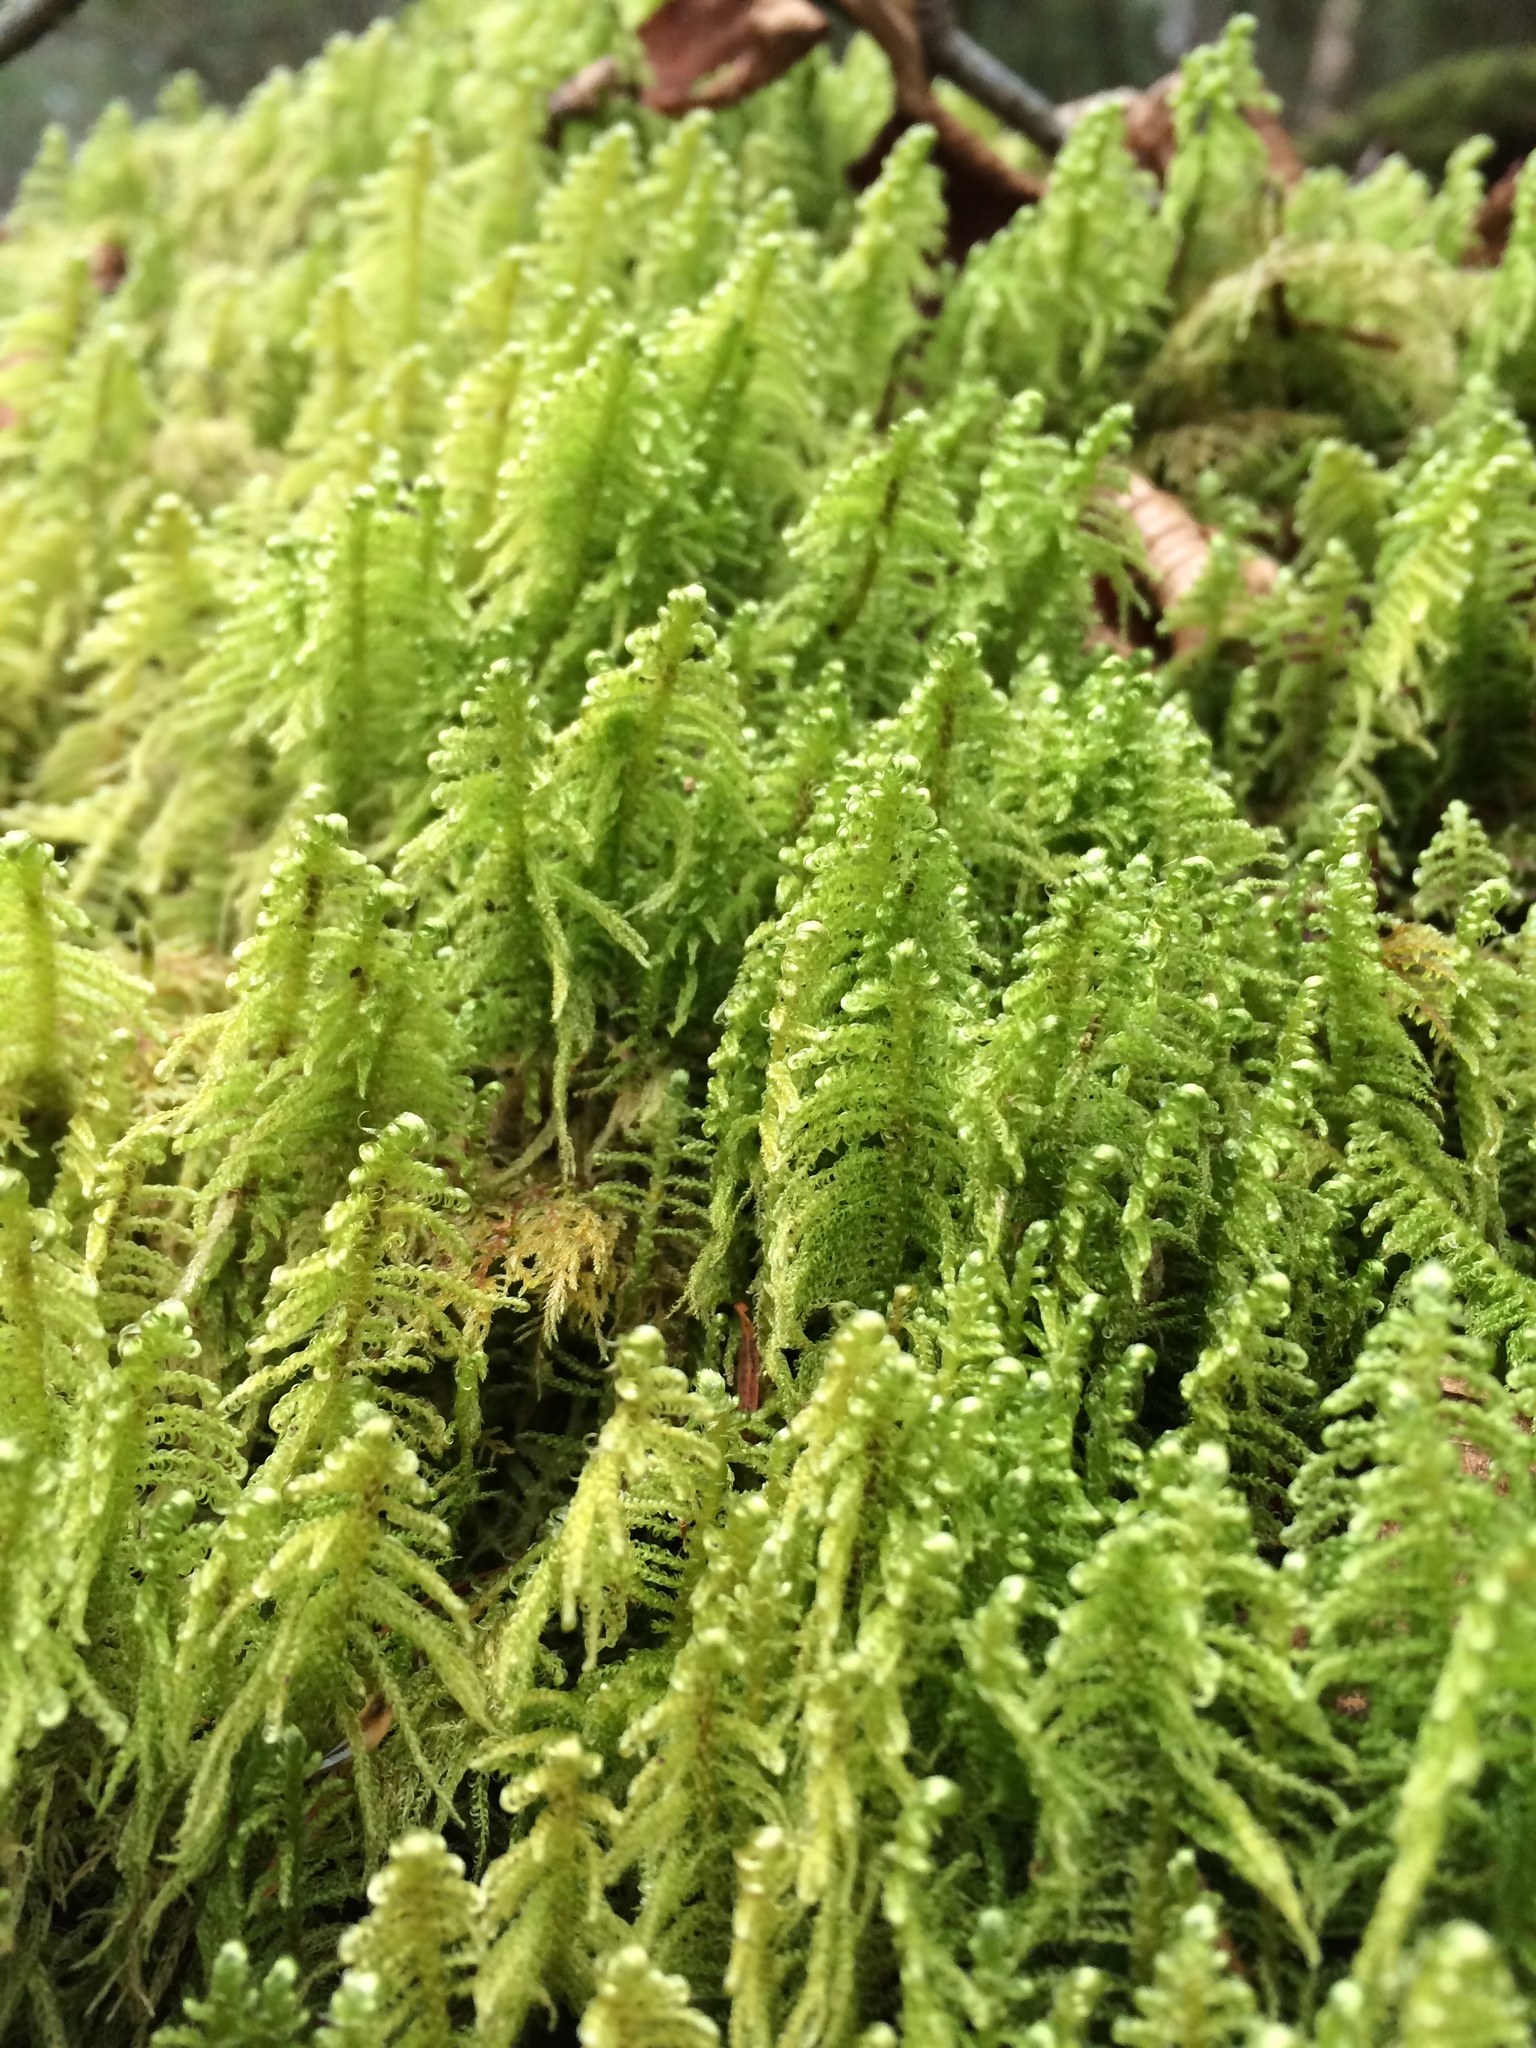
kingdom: Plantae
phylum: Bryophyta
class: Bryopsida
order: Hypnales
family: Pylaisiaceae
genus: Ptilium
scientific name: Ptilium crista-castrensis
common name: Knight's plume moss
